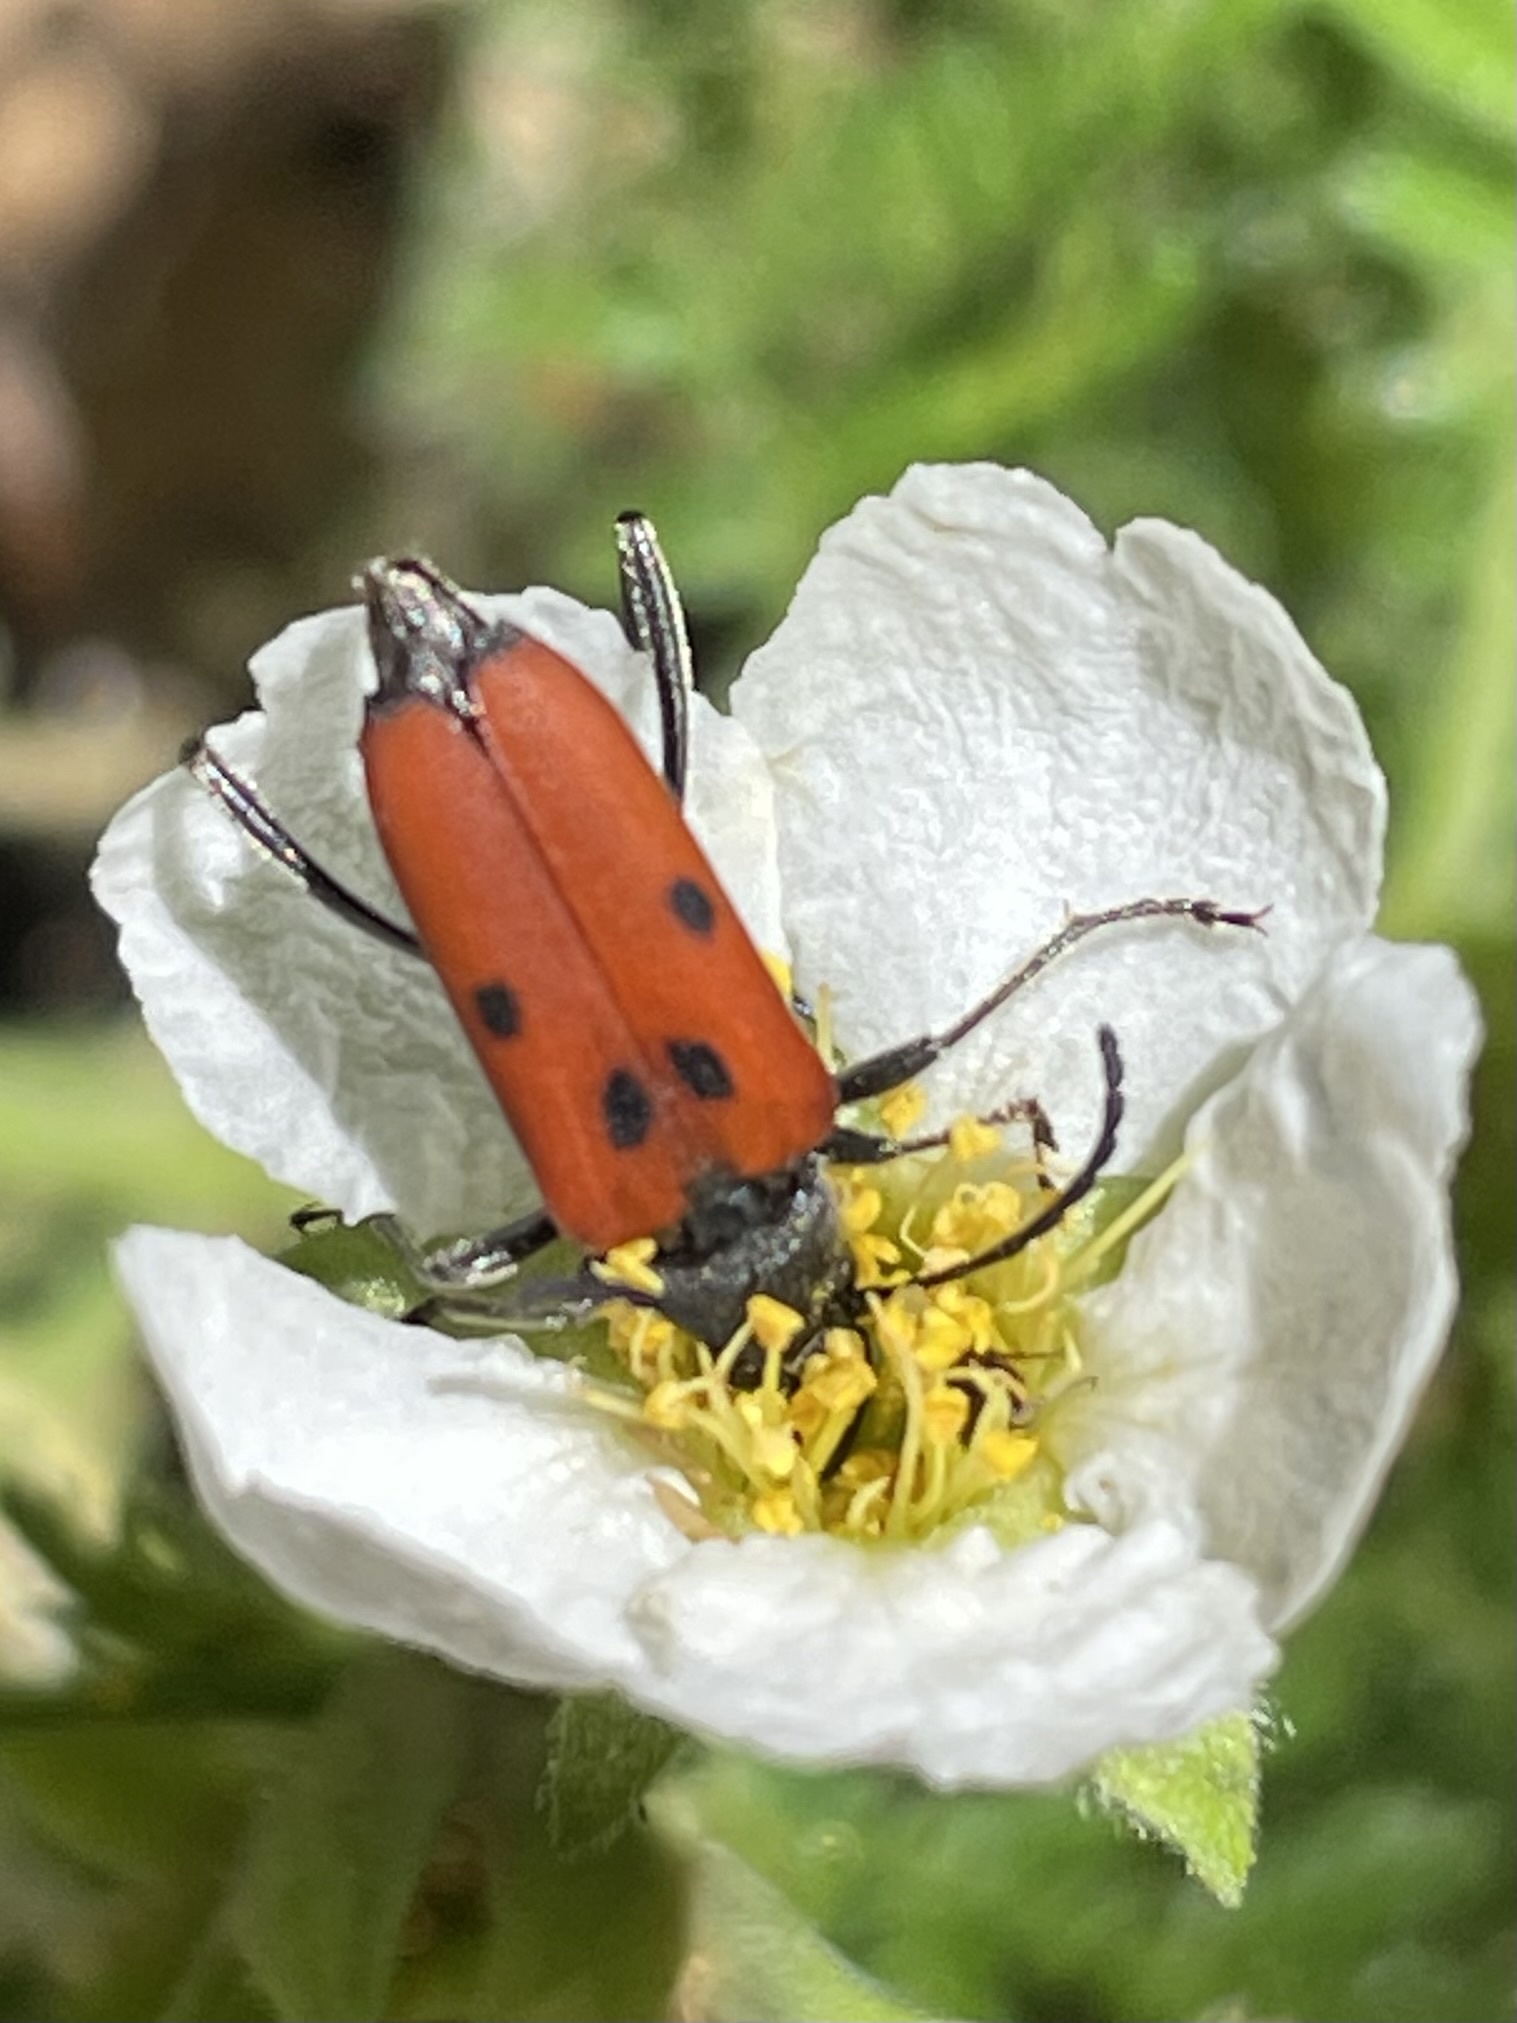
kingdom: Animalia
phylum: Arthropoda
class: Insecta
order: Coleoptera
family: Cerambycidae
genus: Anastrangalia
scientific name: Anastrangalia laetifica
